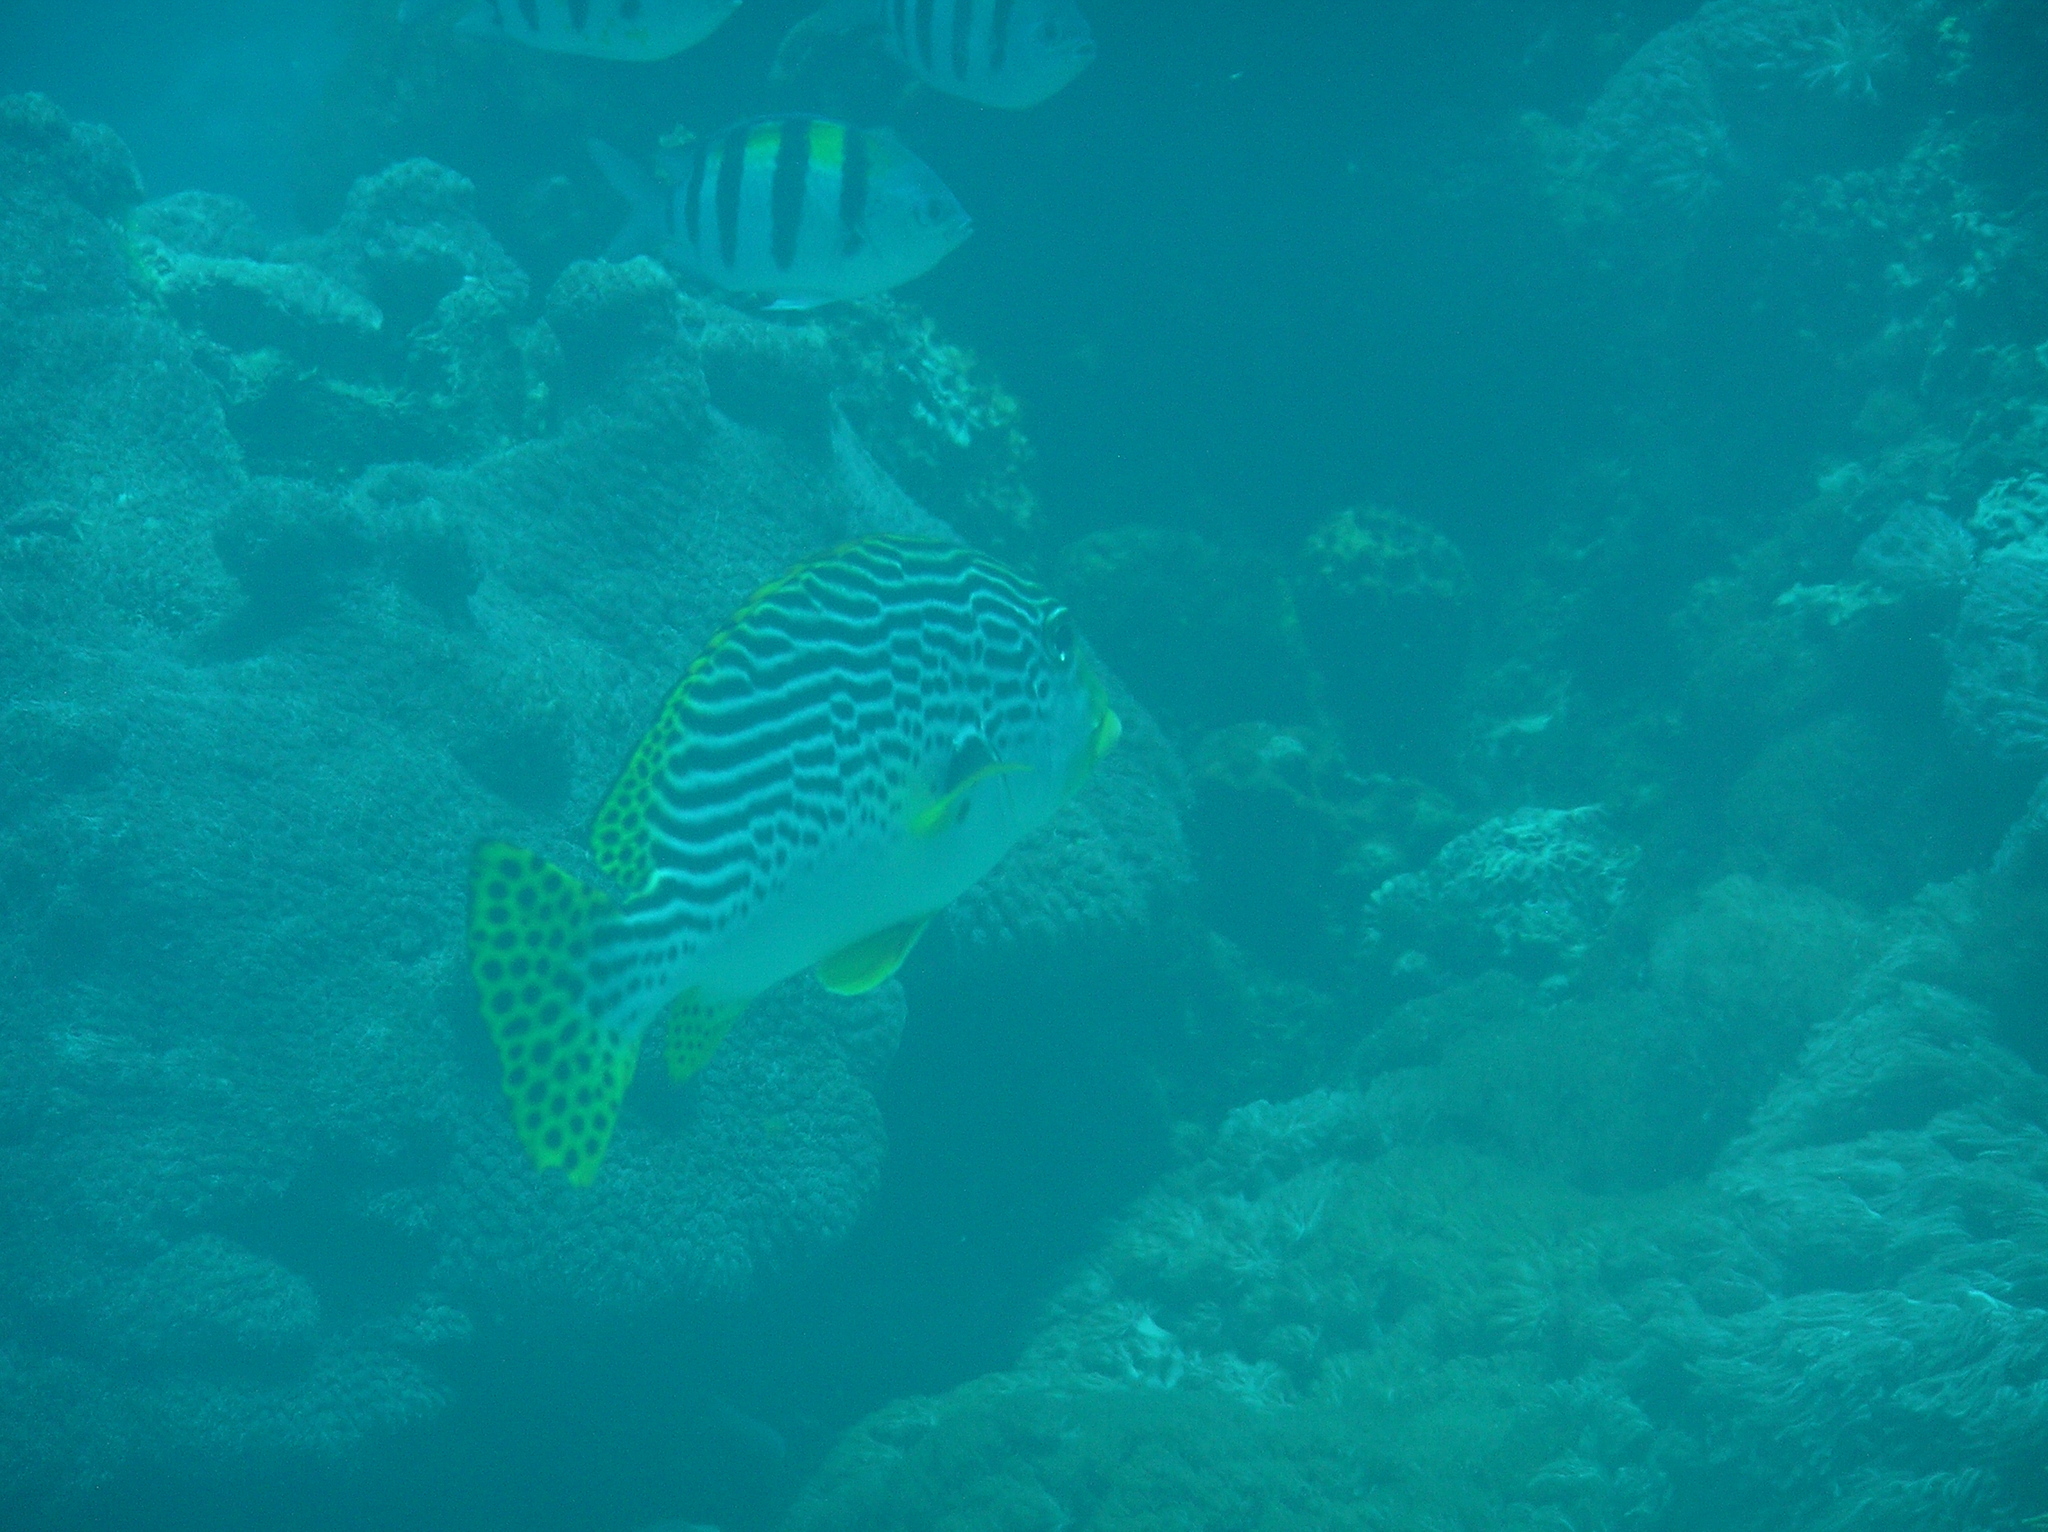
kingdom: Animalia
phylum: Chordata
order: Perciformes
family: Haemulidae
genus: Plectorhinchus
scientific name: Plectorhinchus lineatus
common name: Goldman's sweetlips
